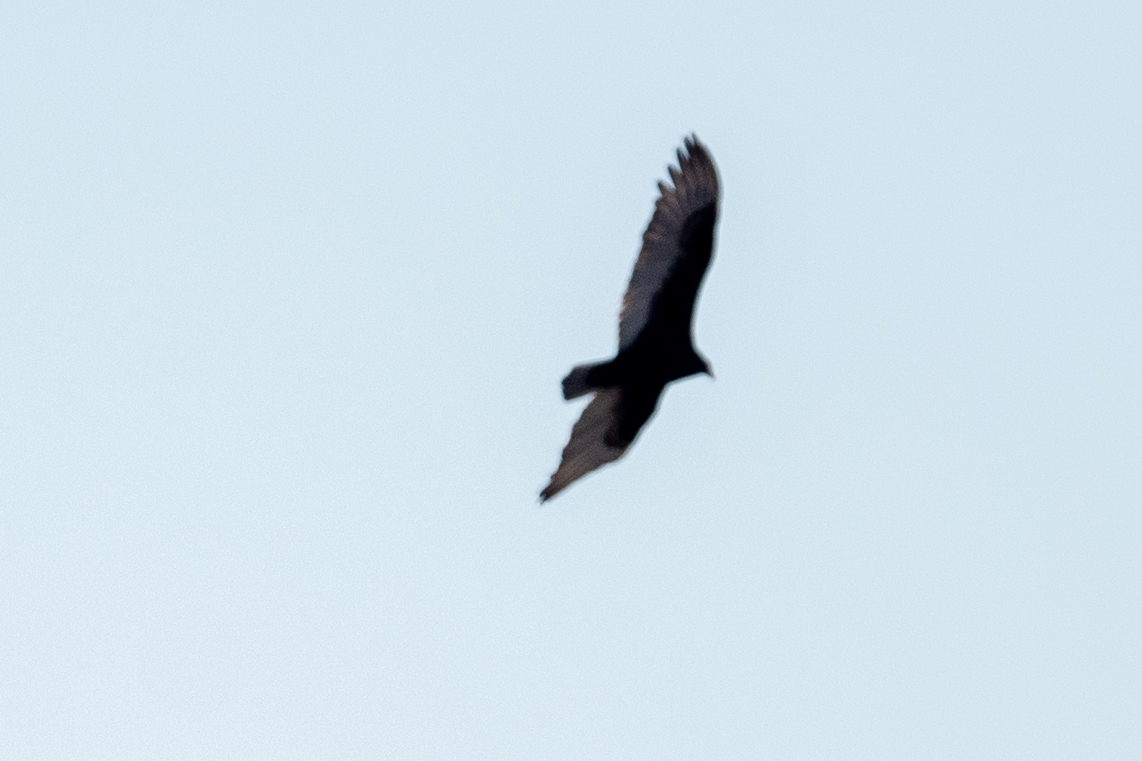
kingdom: Animalia
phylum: Chordata
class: Aves
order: Accipitriformes
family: Cathartidae
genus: Cathartes
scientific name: Cathartes aura
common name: Turkey vulture
